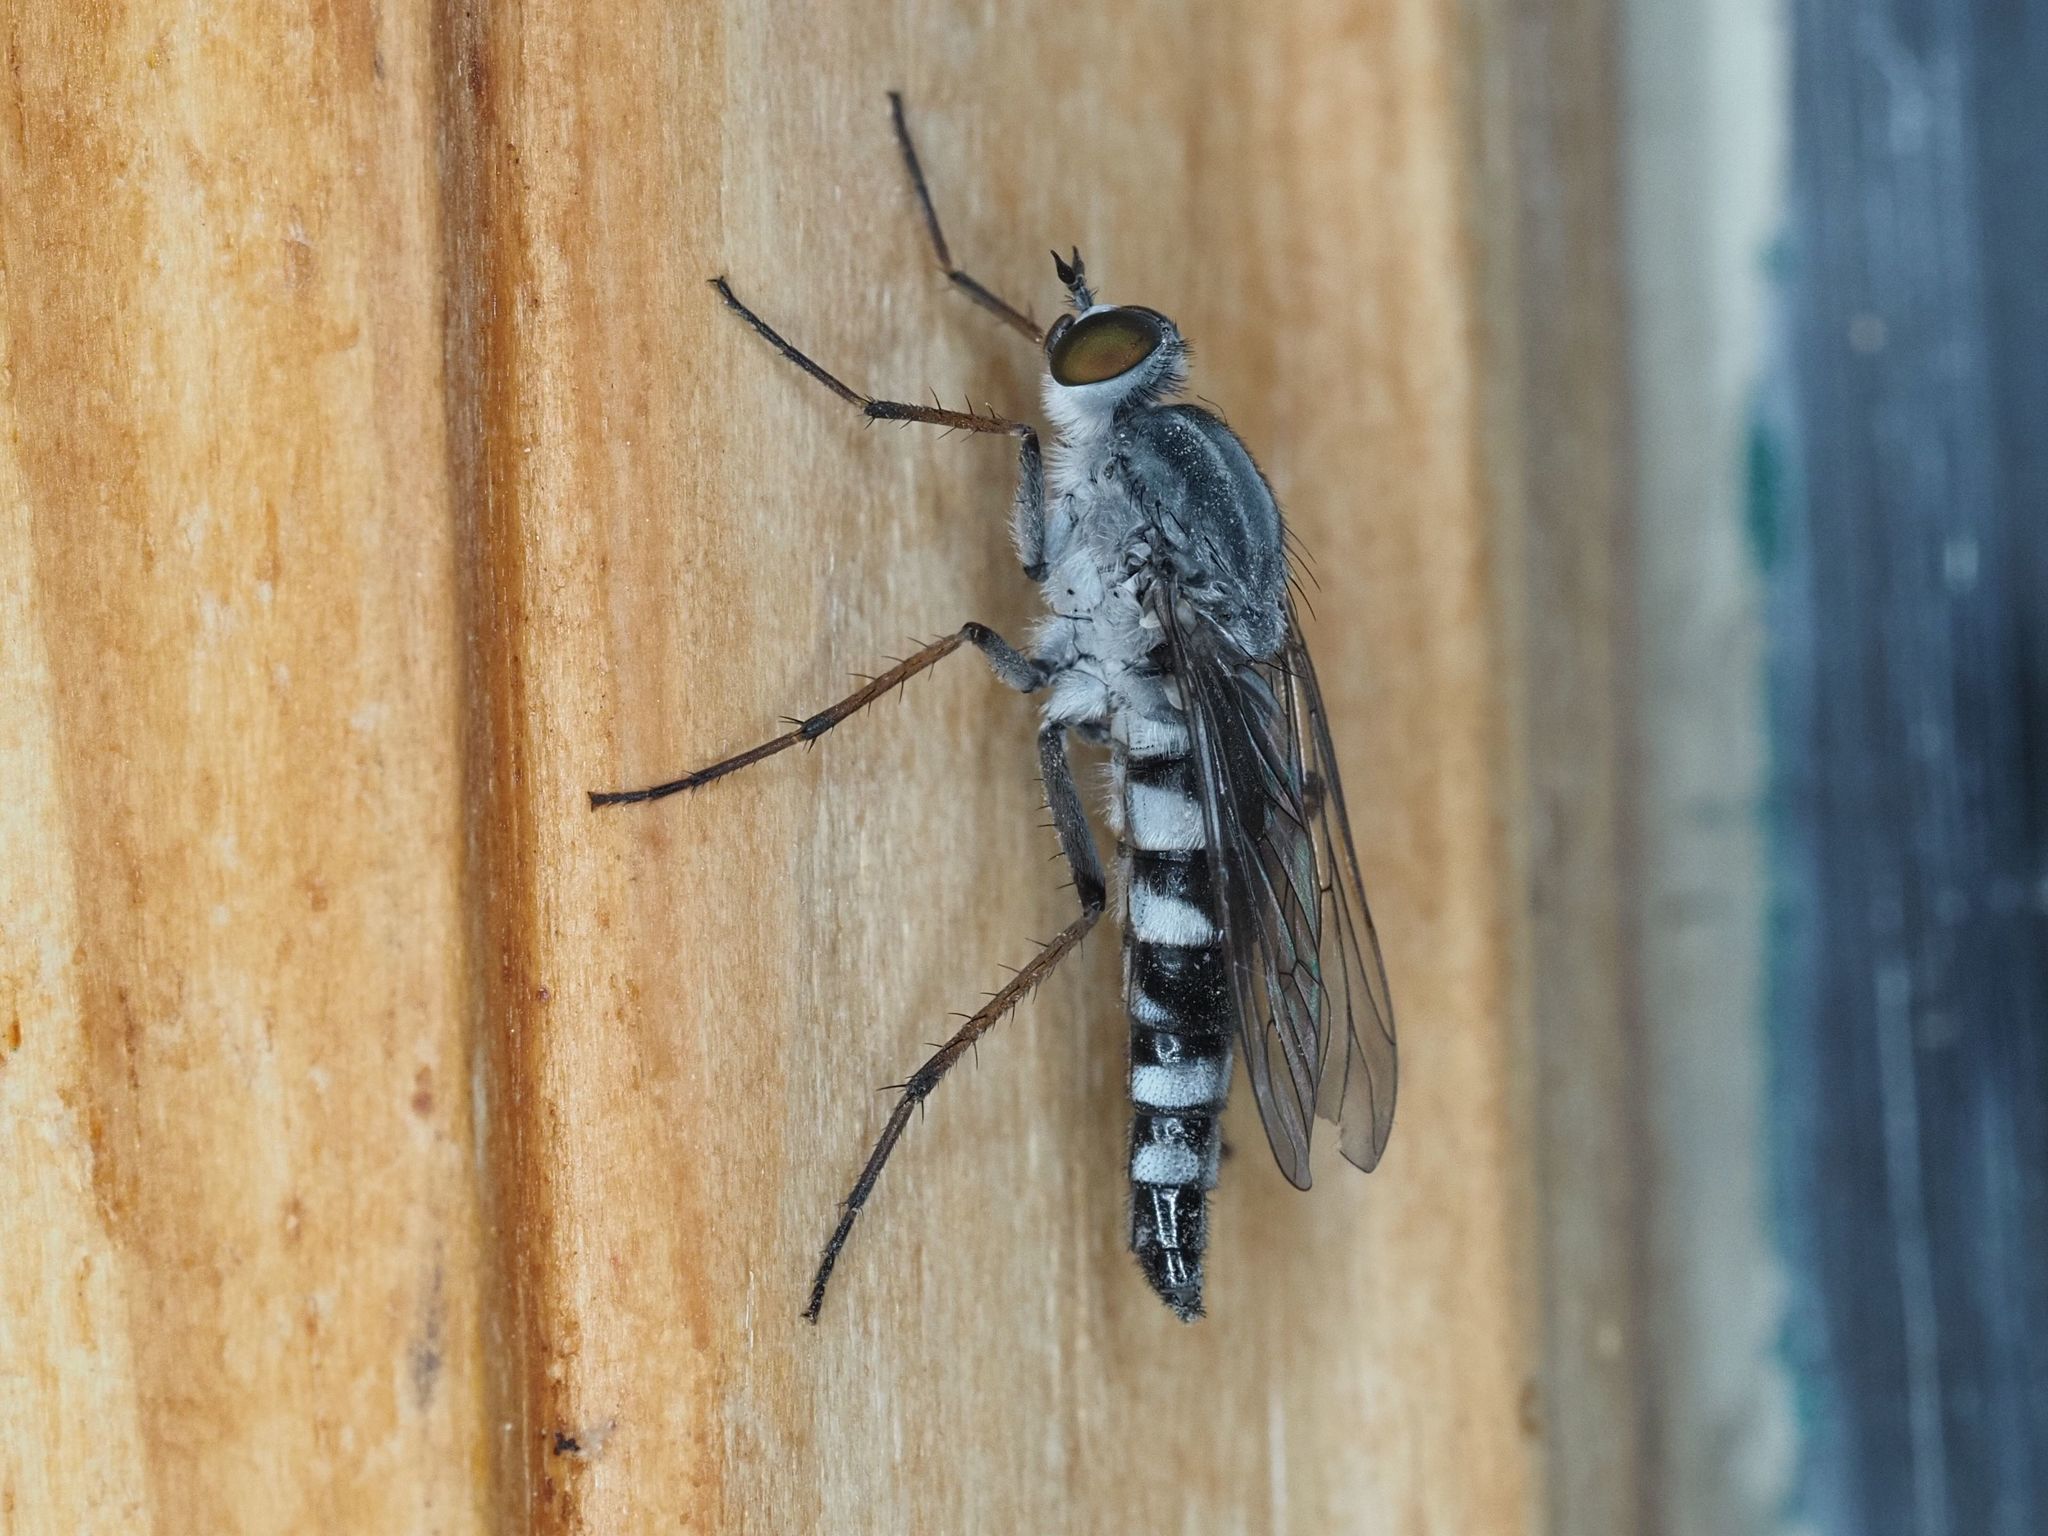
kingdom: Animalia
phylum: Arthropoda
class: Insecta
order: Diptera
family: Therevidae
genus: Pandivirilia
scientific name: Pandivirilia melaleuca
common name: Forest silver-stiletto
